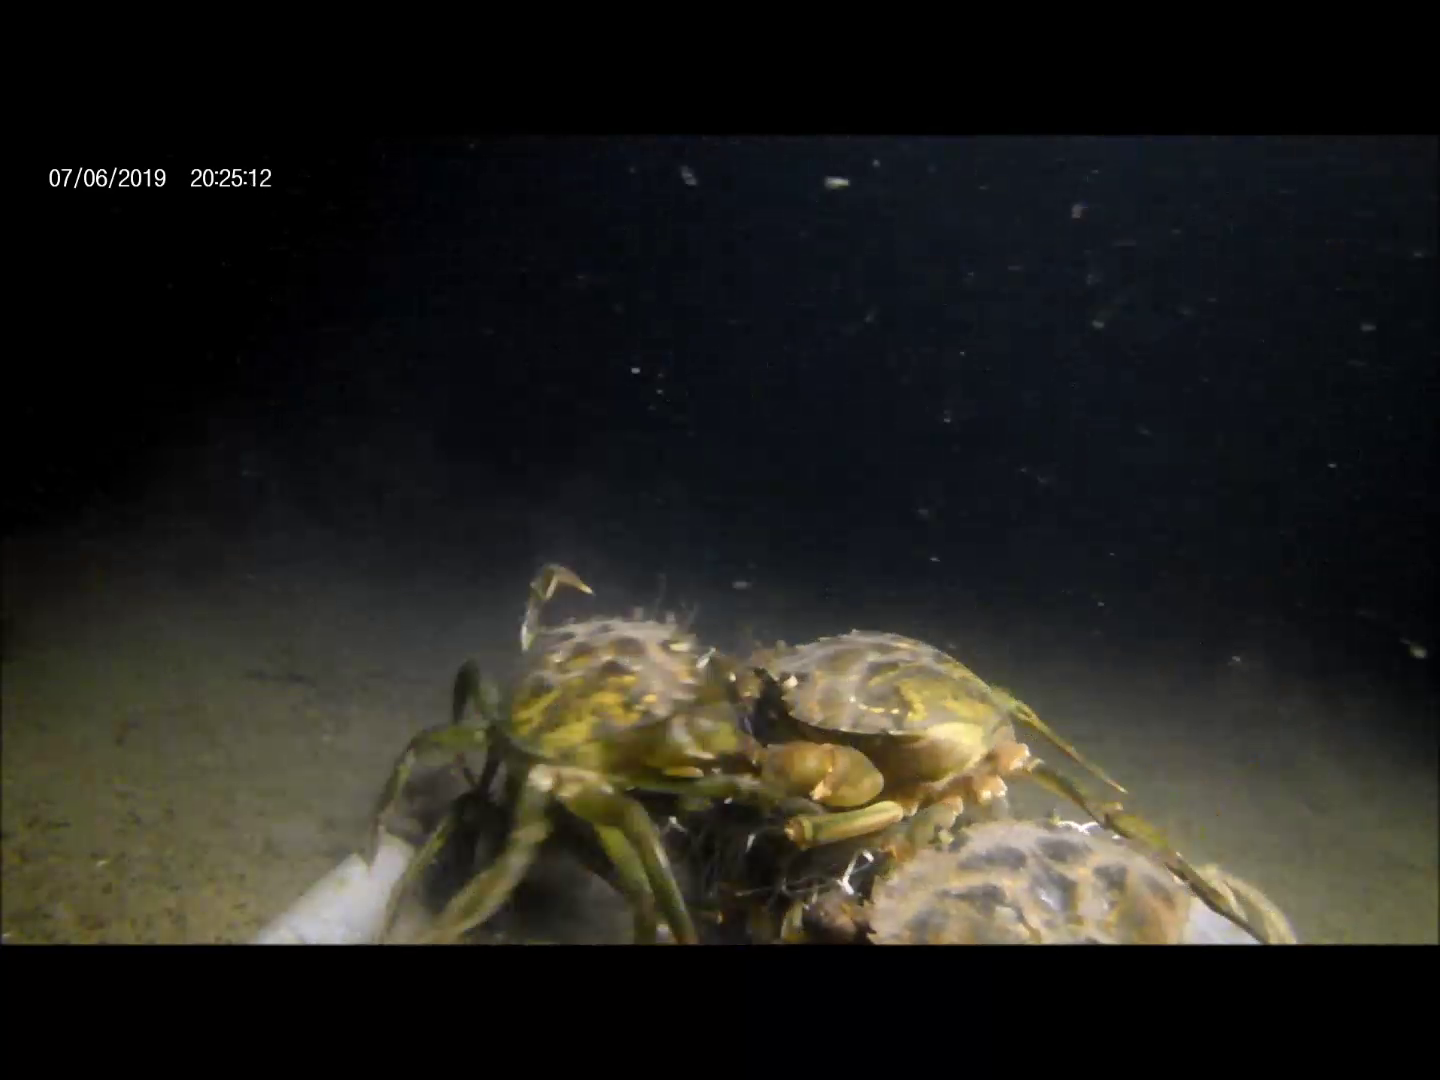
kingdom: Animalia
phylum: Arthropoda
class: Malacostraca
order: Decapoda
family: Carcinidae
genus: Carcinus
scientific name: Carcinus maenas
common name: European green crab
